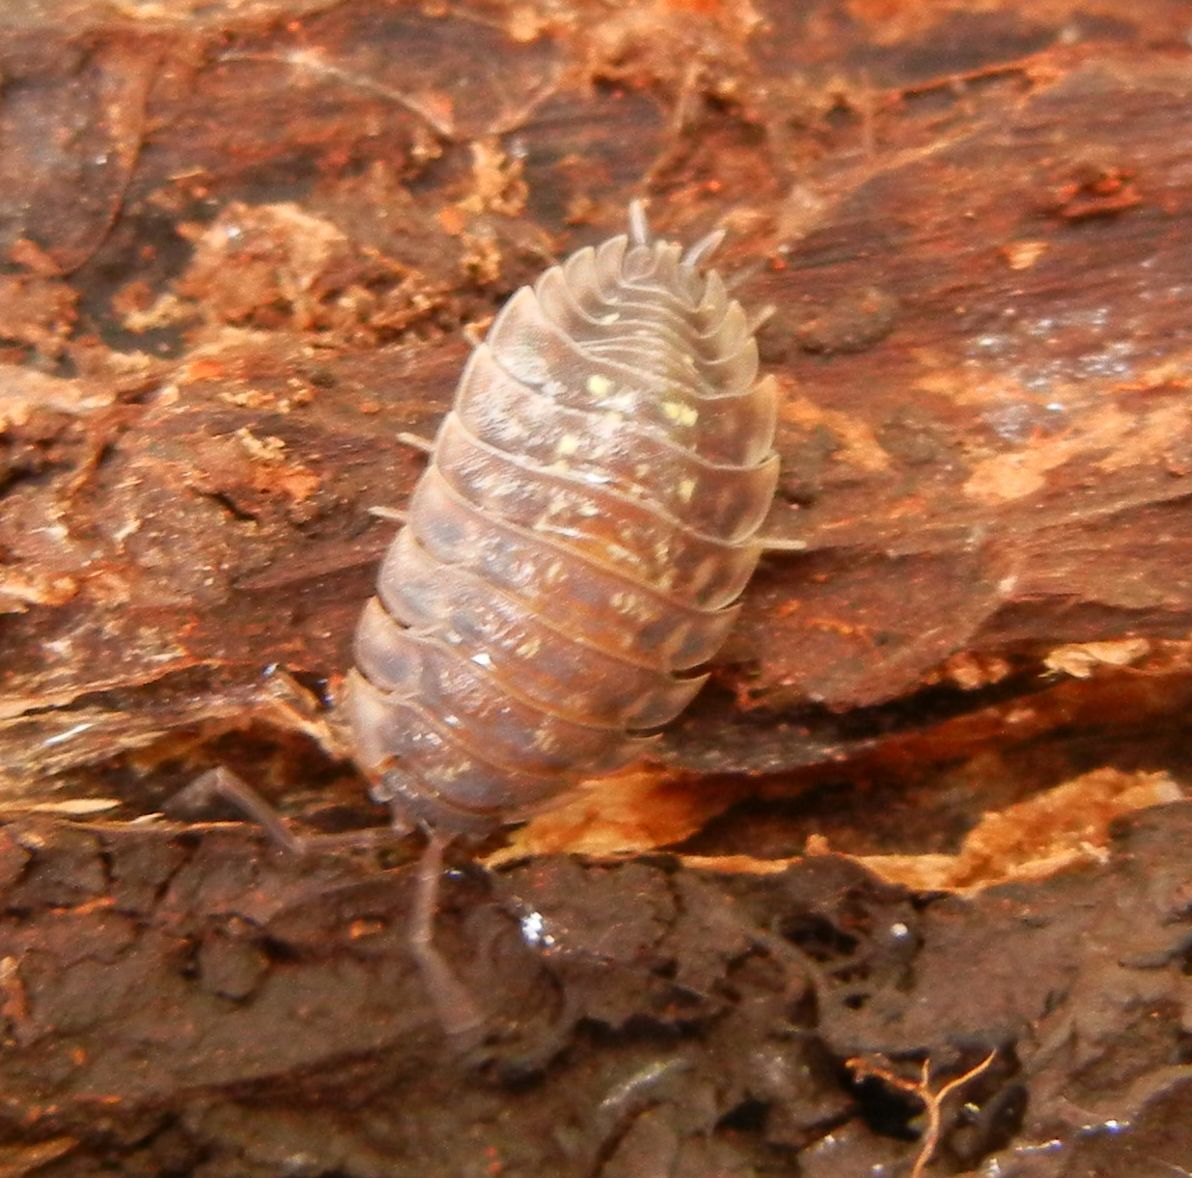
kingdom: Animalia
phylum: Arthropoda
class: Malacostraca
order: Isopoda
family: Oniscidae
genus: Oniscus
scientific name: Oniscus asellus
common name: Common shiny woodlouse
